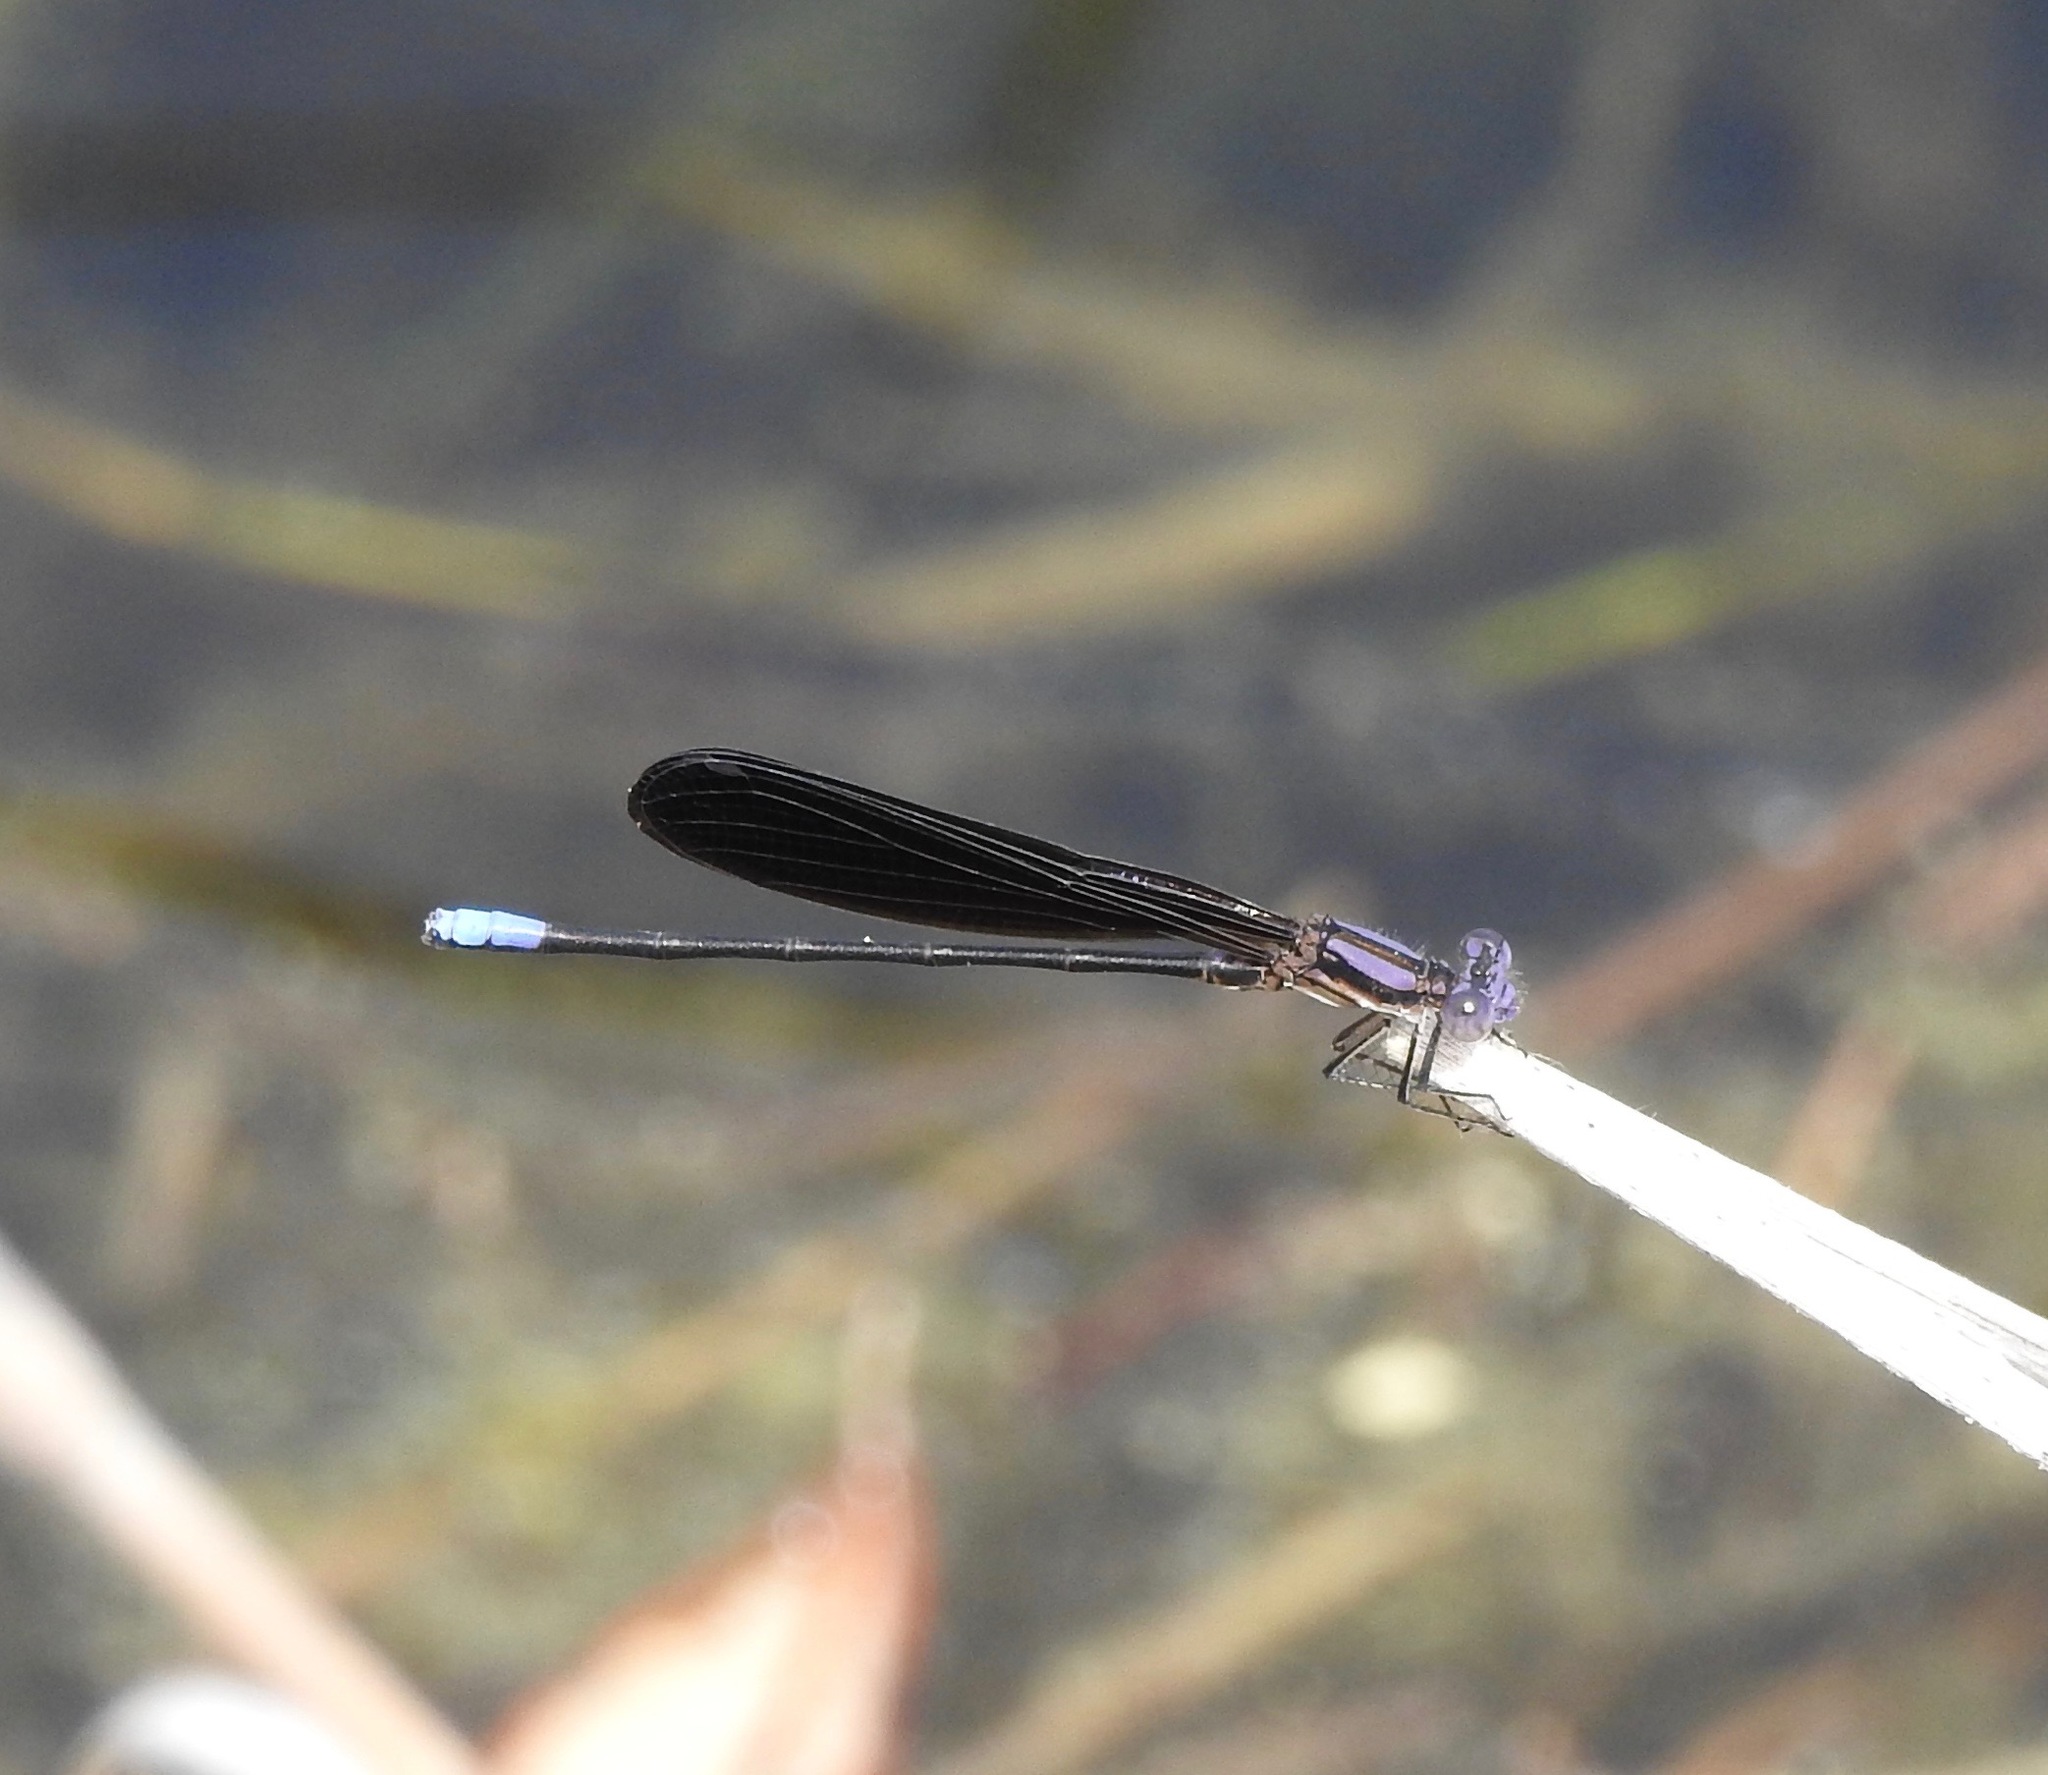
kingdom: Animalia
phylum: Arthropoda
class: Insecta
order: Odonata
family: Coenagrionidae
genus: Argia
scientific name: Argia fumipennis
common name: Variable dancer
